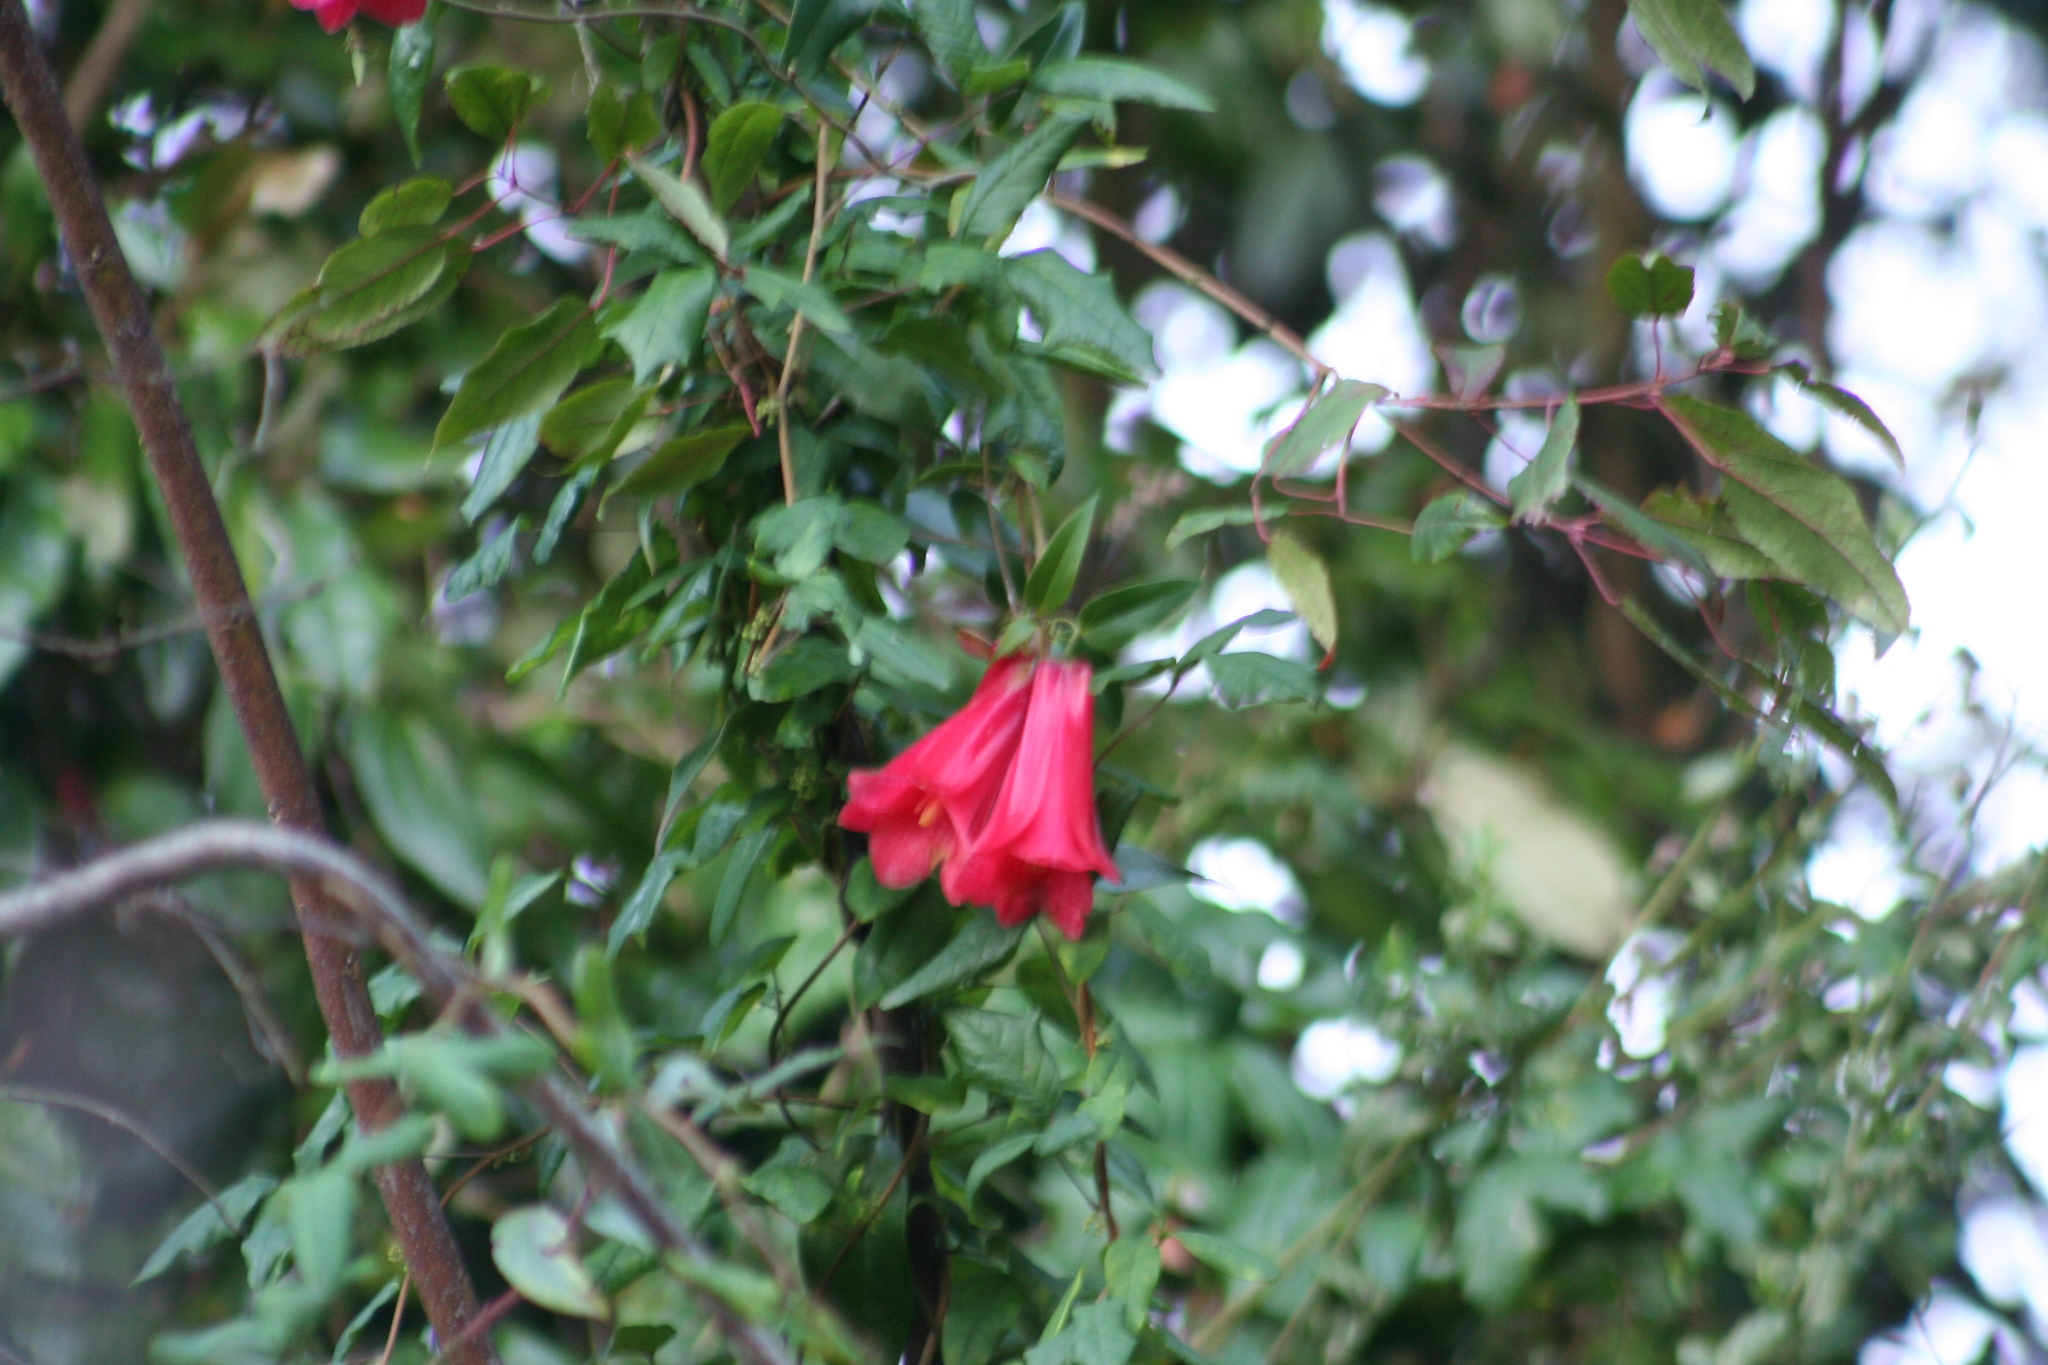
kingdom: Plantae
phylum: Tracheophyta
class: Liliopsida
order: Liliales
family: Philesiaceae
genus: Lapageria
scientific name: Lapageria rosea
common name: Chilean-bellflower
